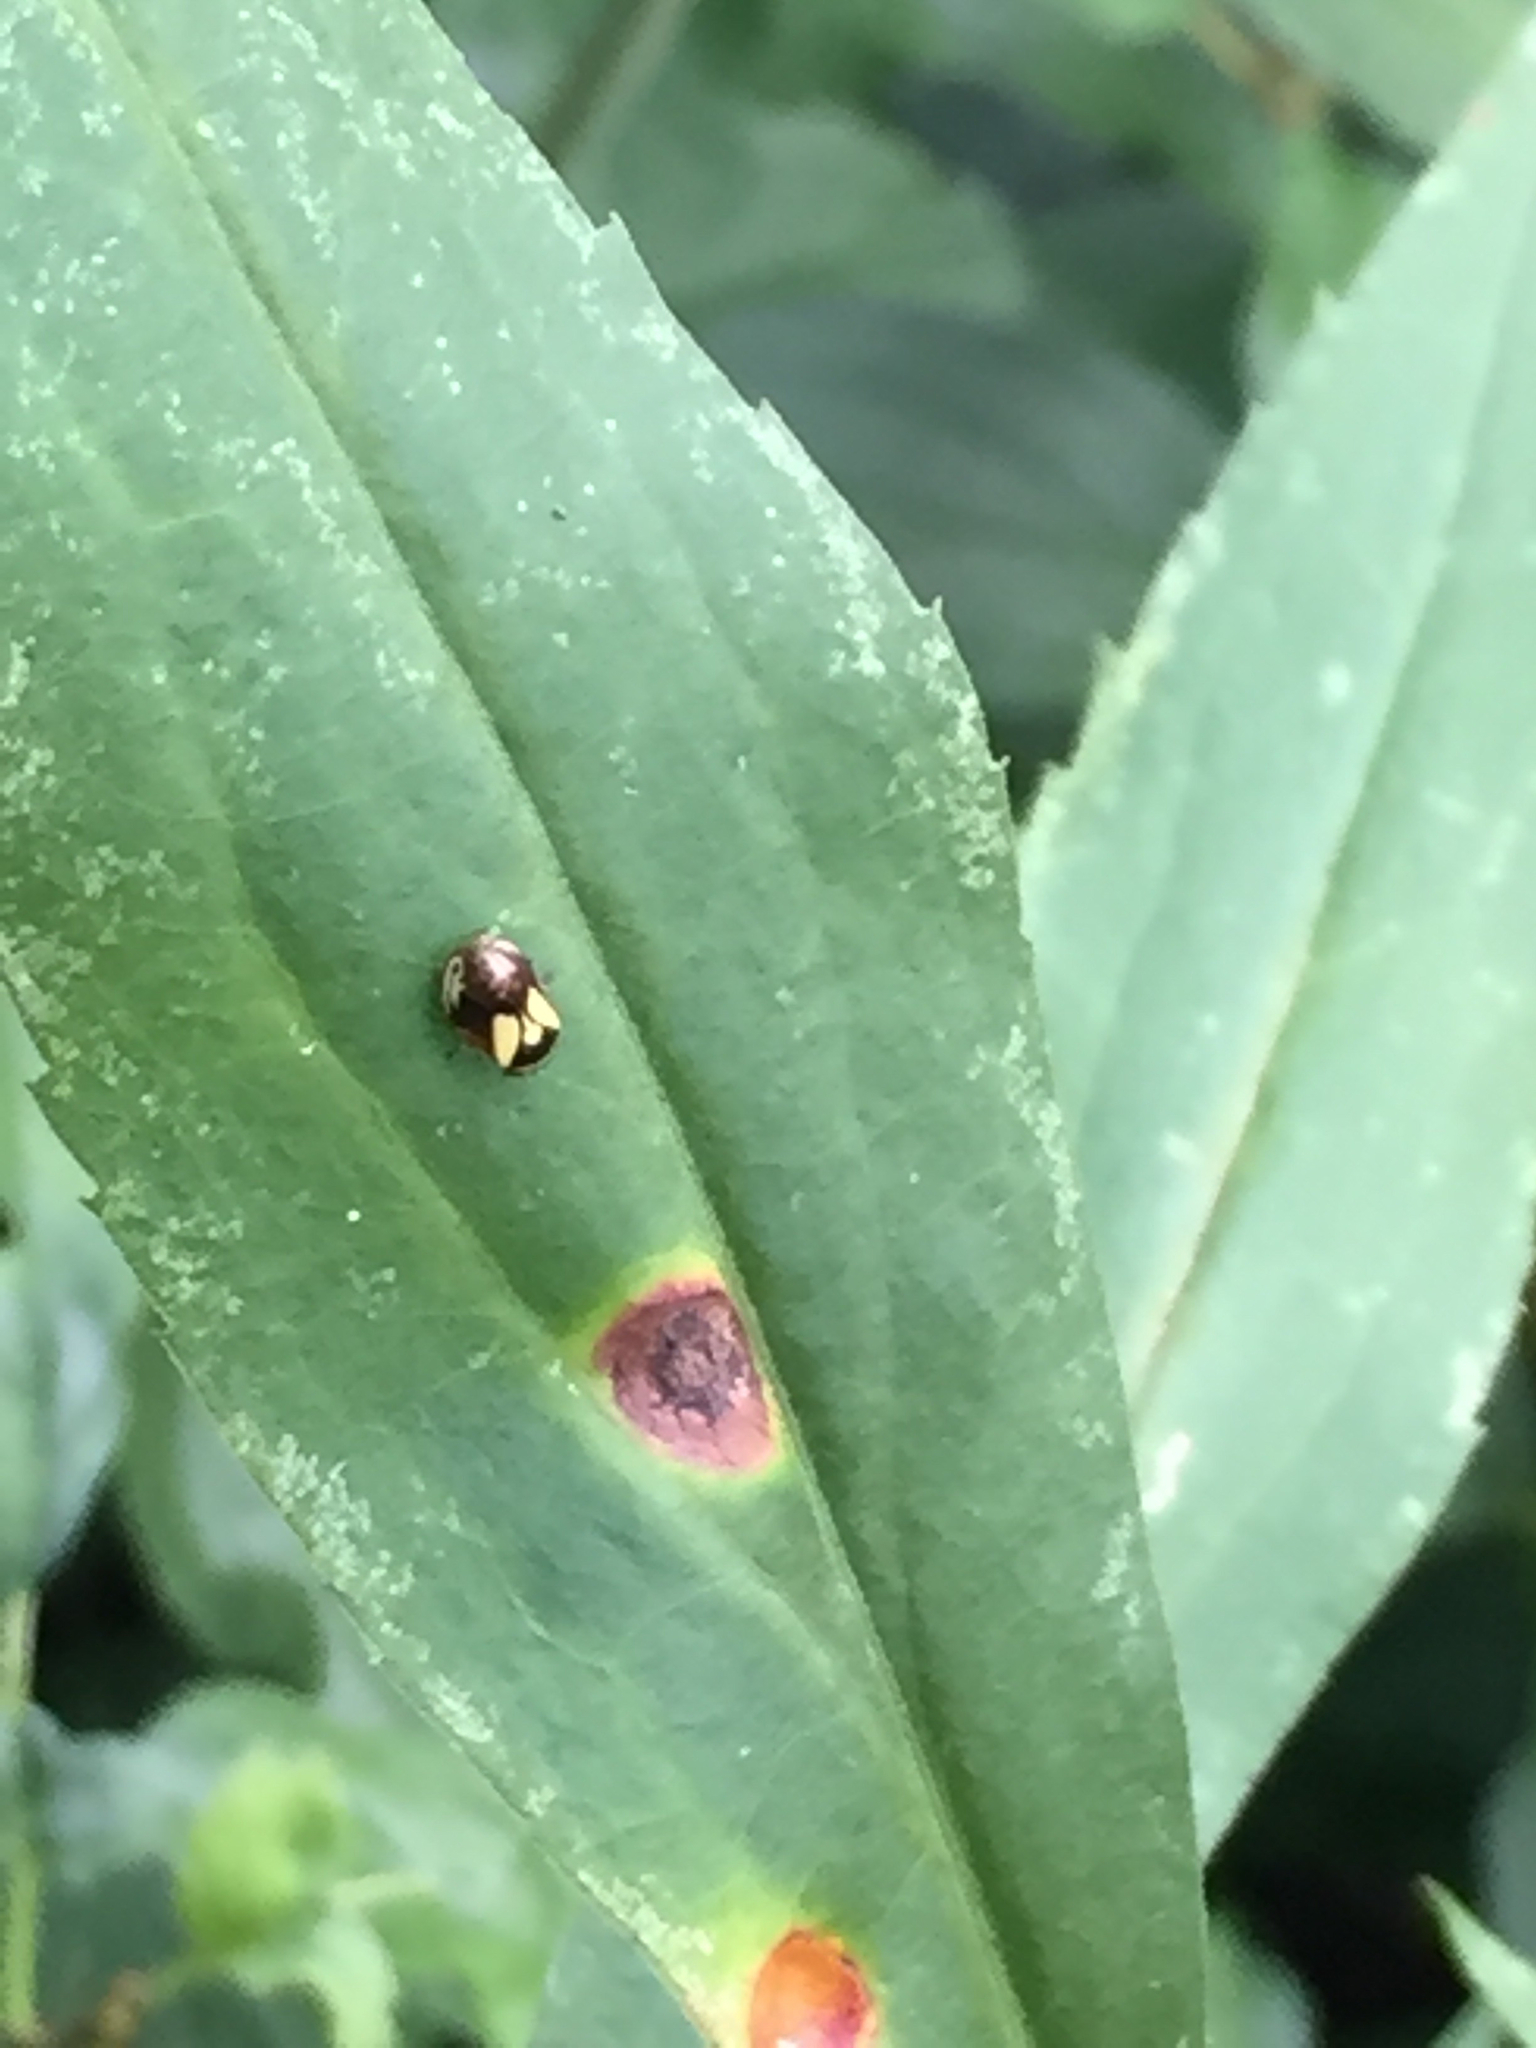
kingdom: Animalia
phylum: Arthropoda
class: Insecta
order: Hemiptera
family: Clastopteridae
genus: Clastoptera
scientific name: Clastoptera proteus
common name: Dogwood spittlebug
